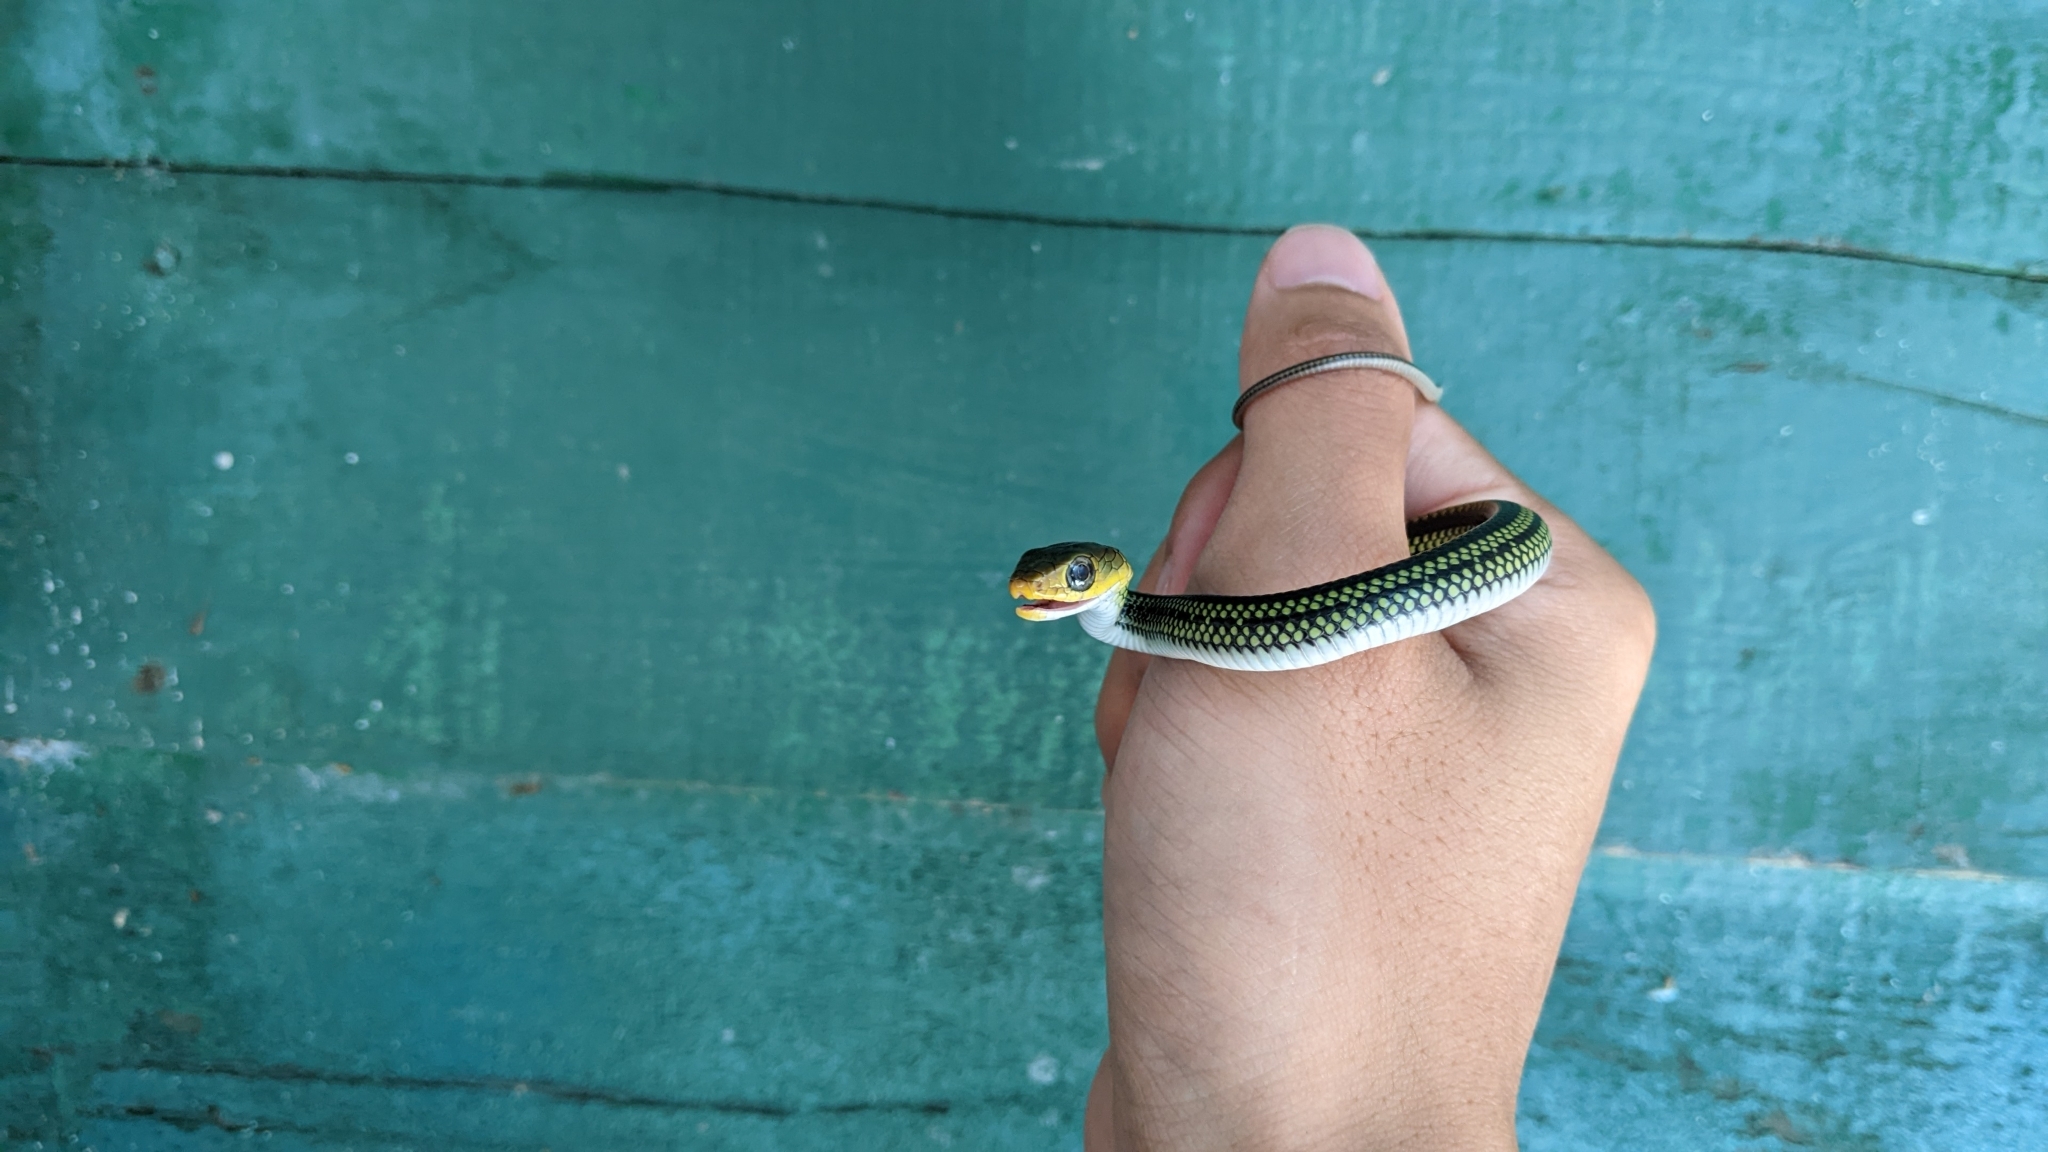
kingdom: Animalia
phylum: Chordata
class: Squamata
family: Colubridae
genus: Ptyas
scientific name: Ptyas dhumnades
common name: Black-striped rat snake
